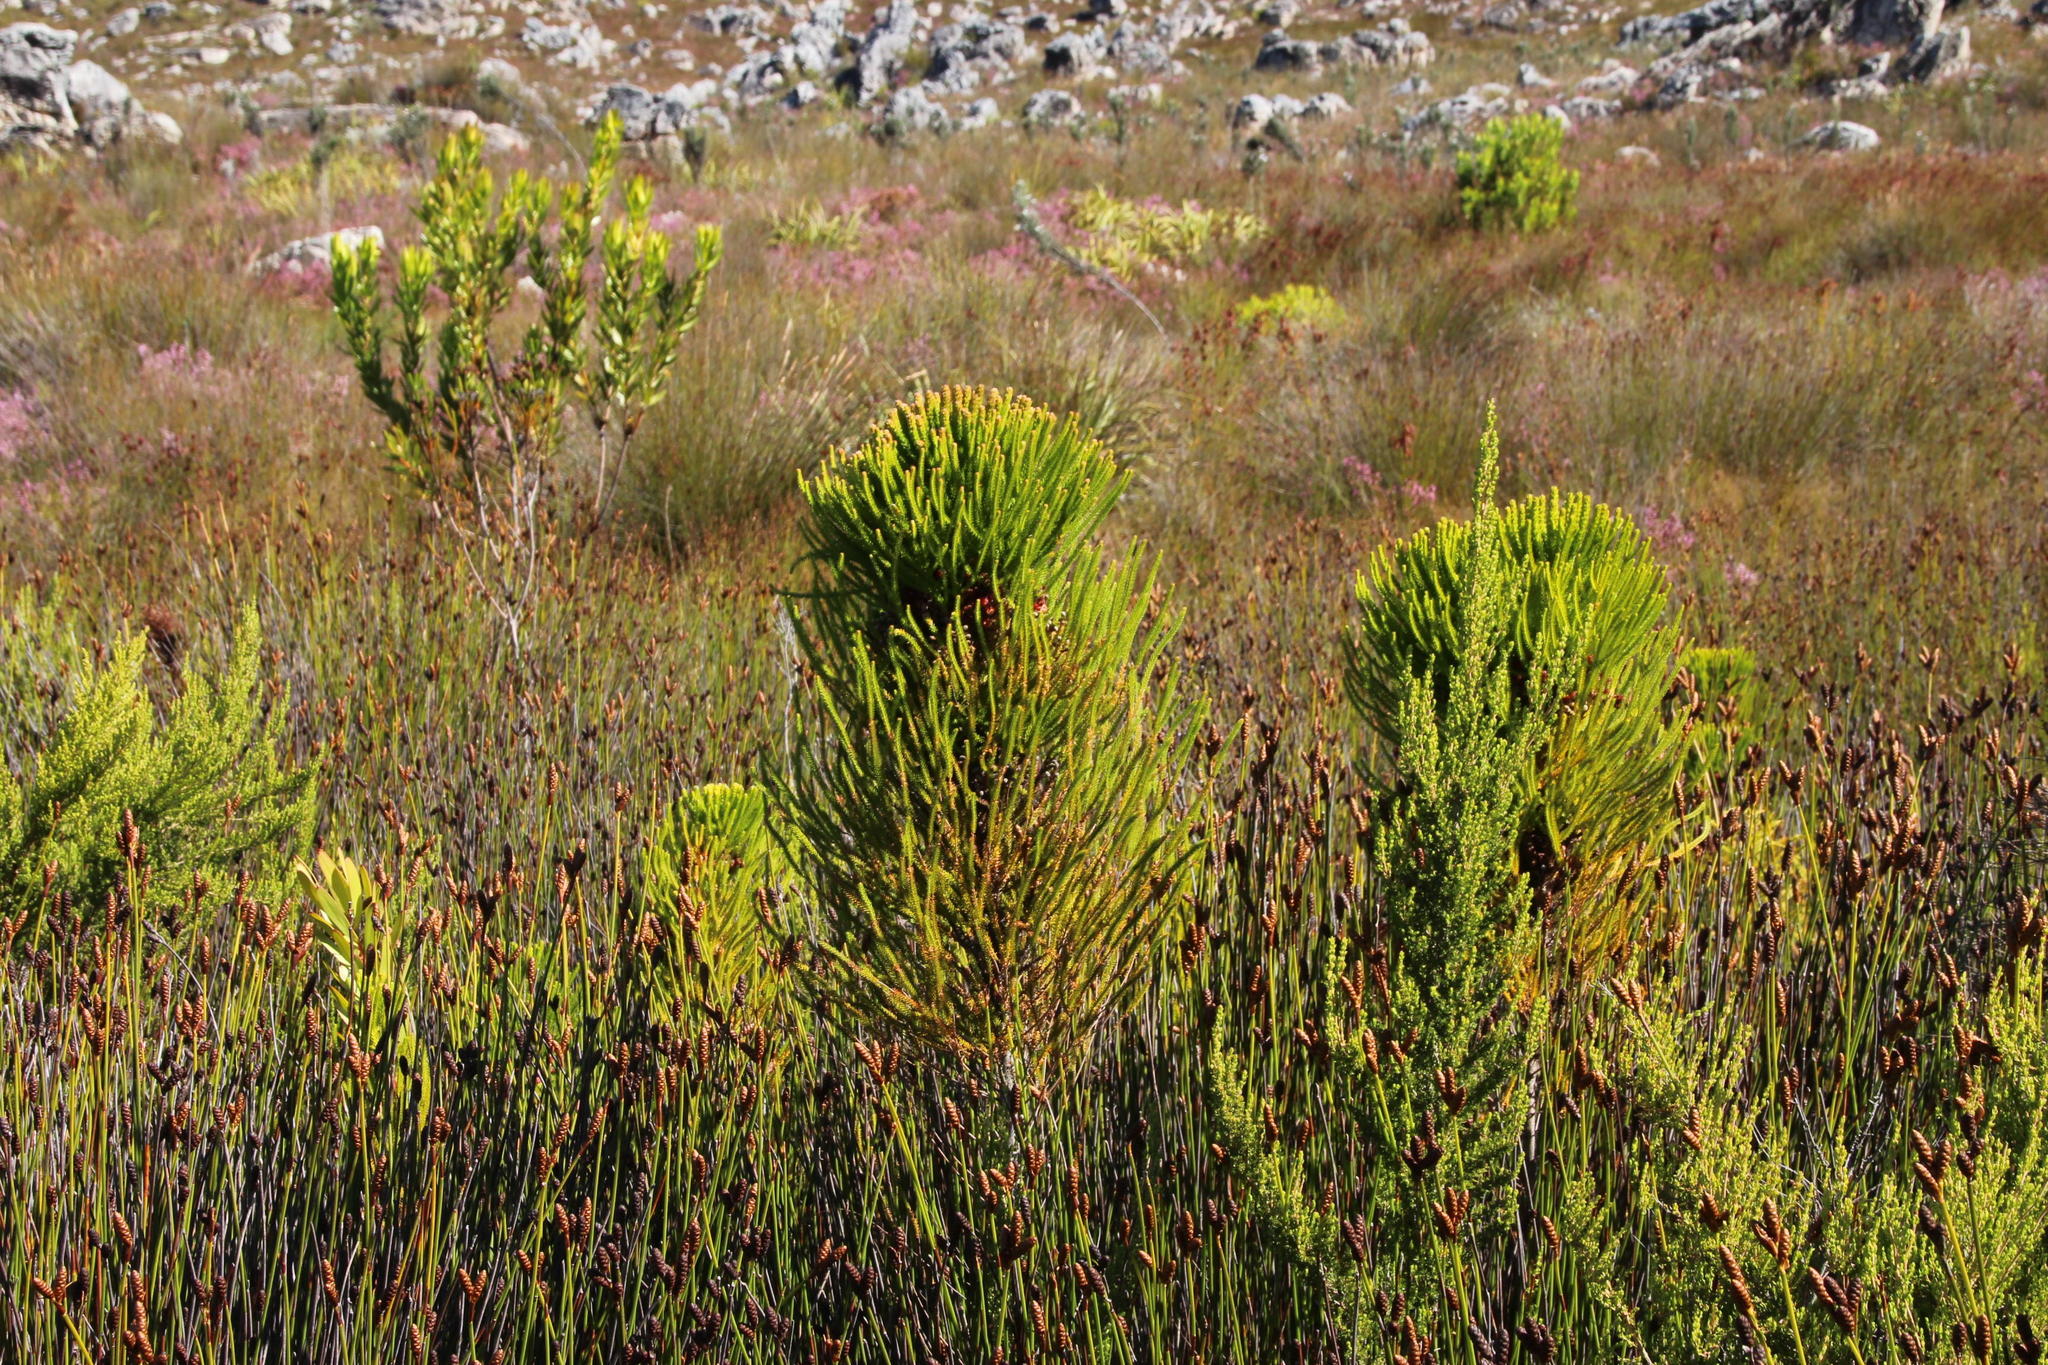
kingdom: Plantae
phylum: Tracheophyta
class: Magnoliopsida
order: Bruniales
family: Bruniaceae
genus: Berzelia
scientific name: Berzelia alopecurioides
